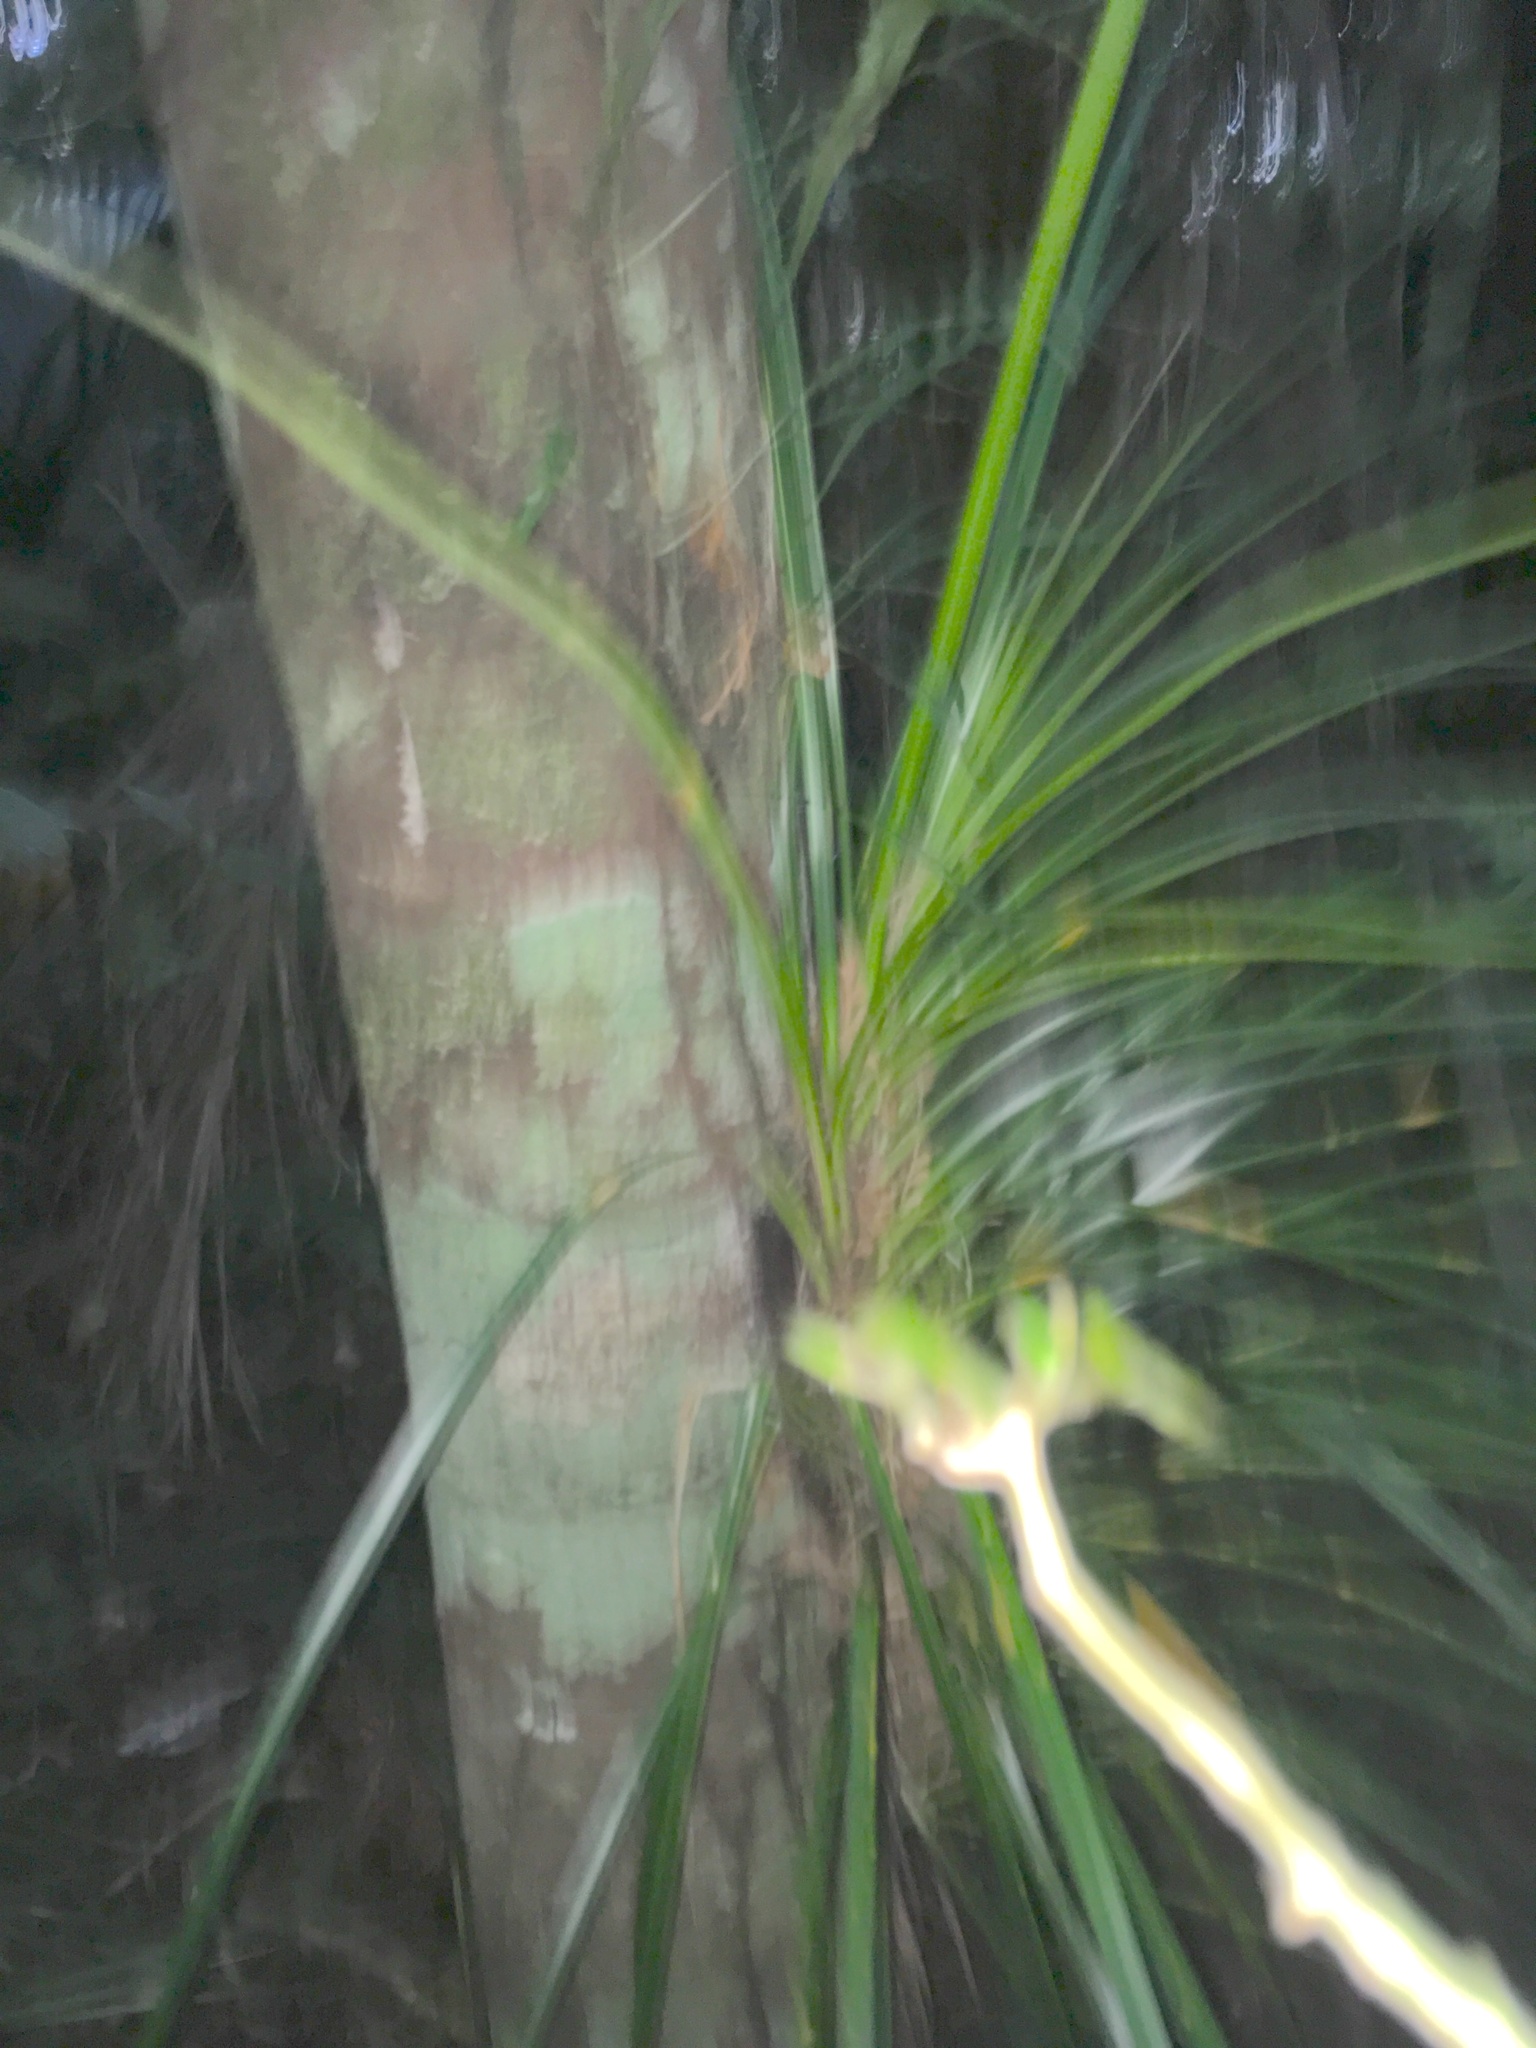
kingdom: Plantae
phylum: Tracheophyta
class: Liliopsida
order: Pandanales
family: Pandanaceae
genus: Freycinetia
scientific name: Freycinetia banksii
